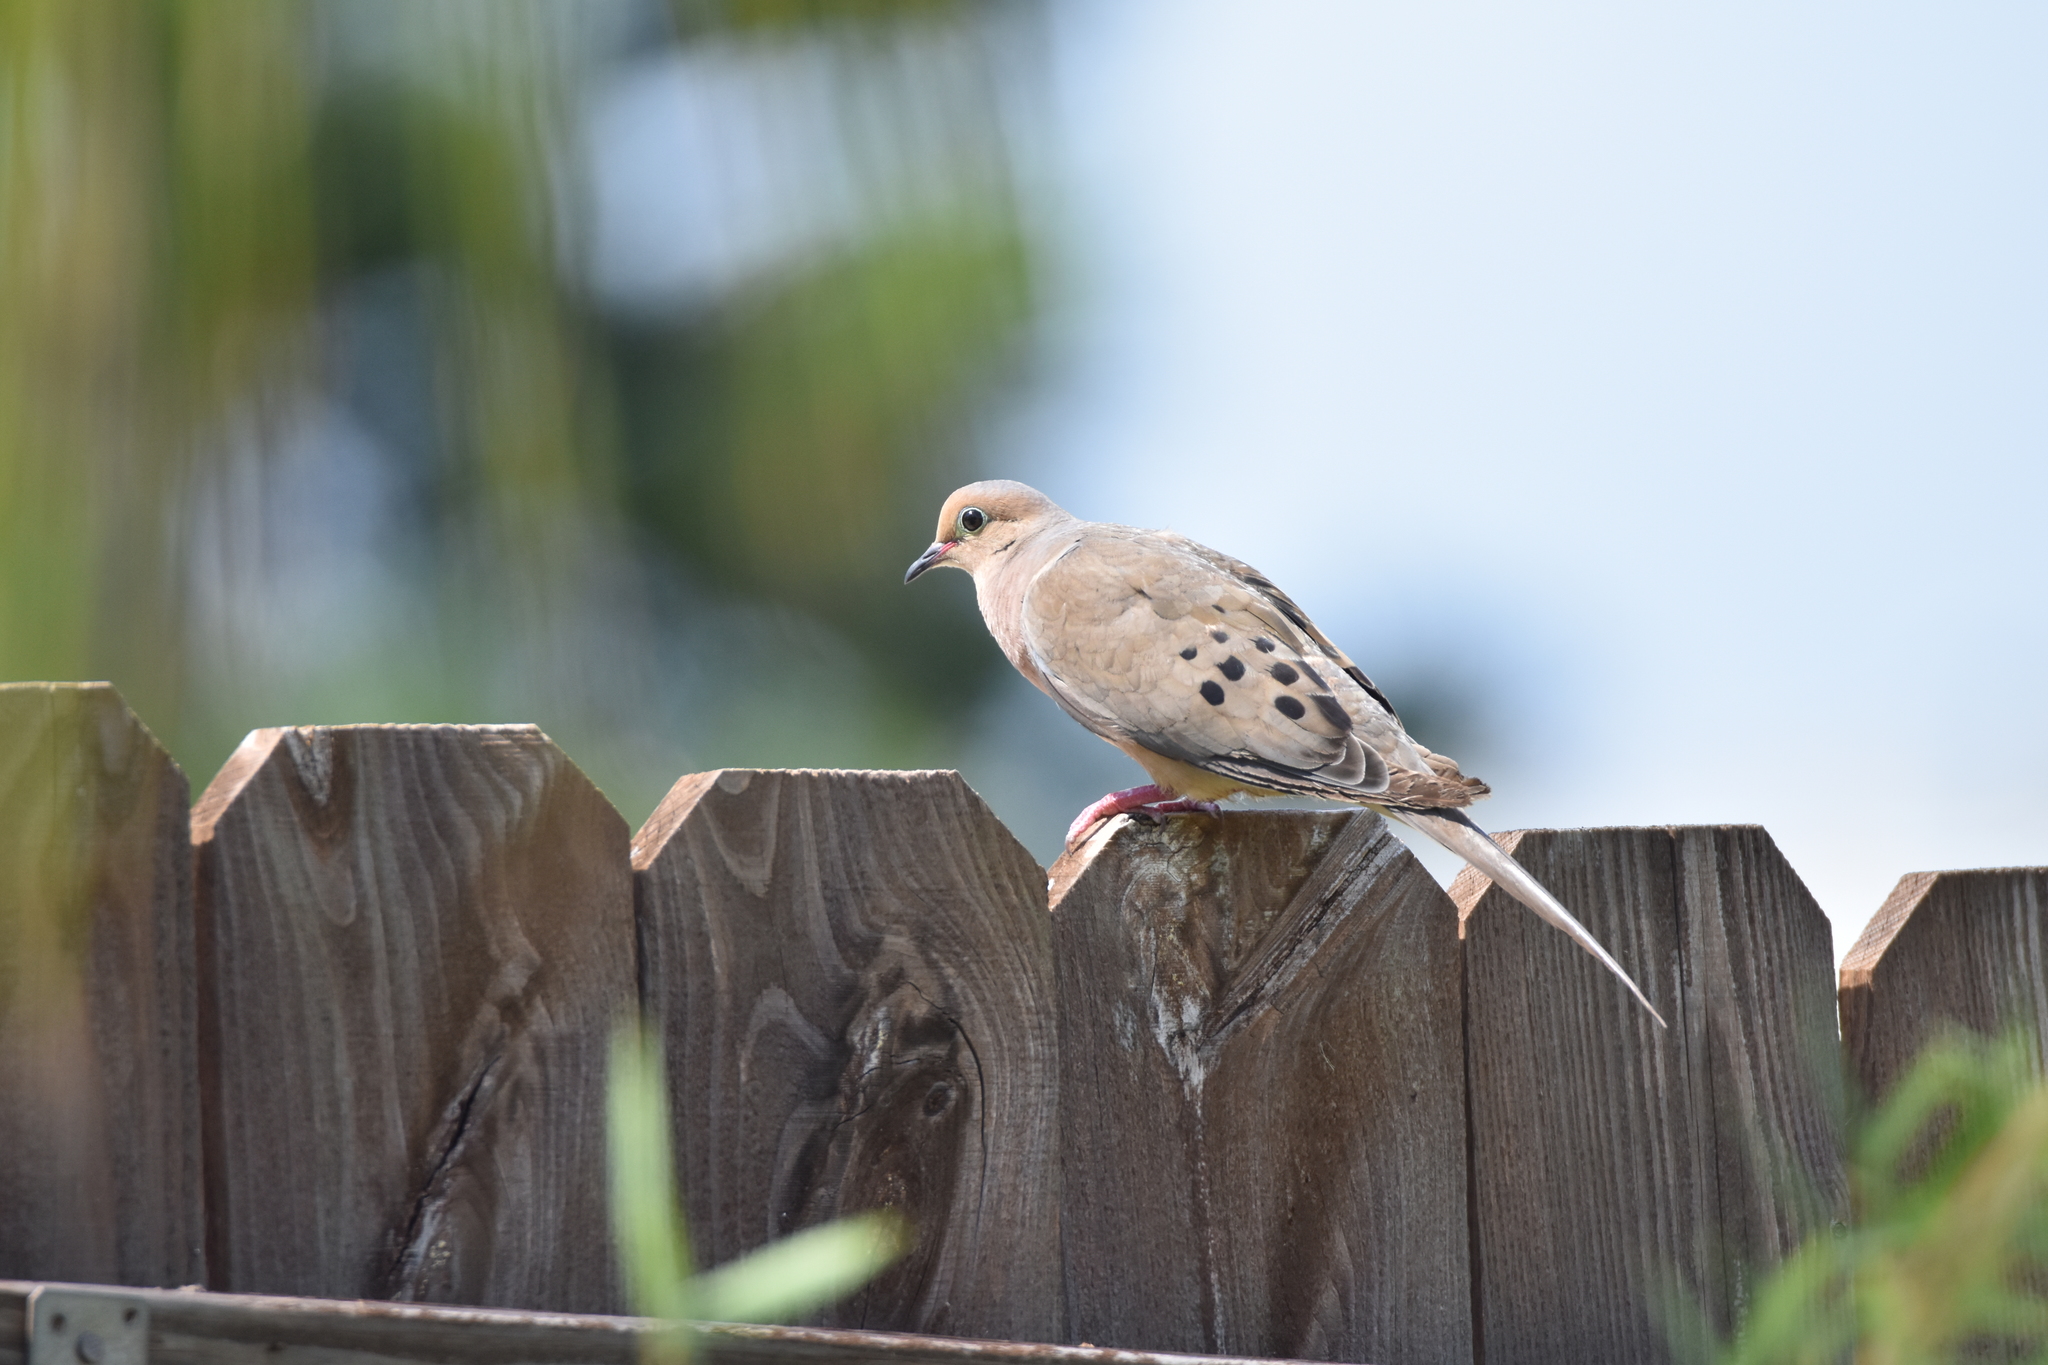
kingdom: Animalia
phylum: Chordata
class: Aves
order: Columbiformes
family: Columbidae
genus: Zenaida
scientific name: Zenaida macroura
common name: Mourning dove
